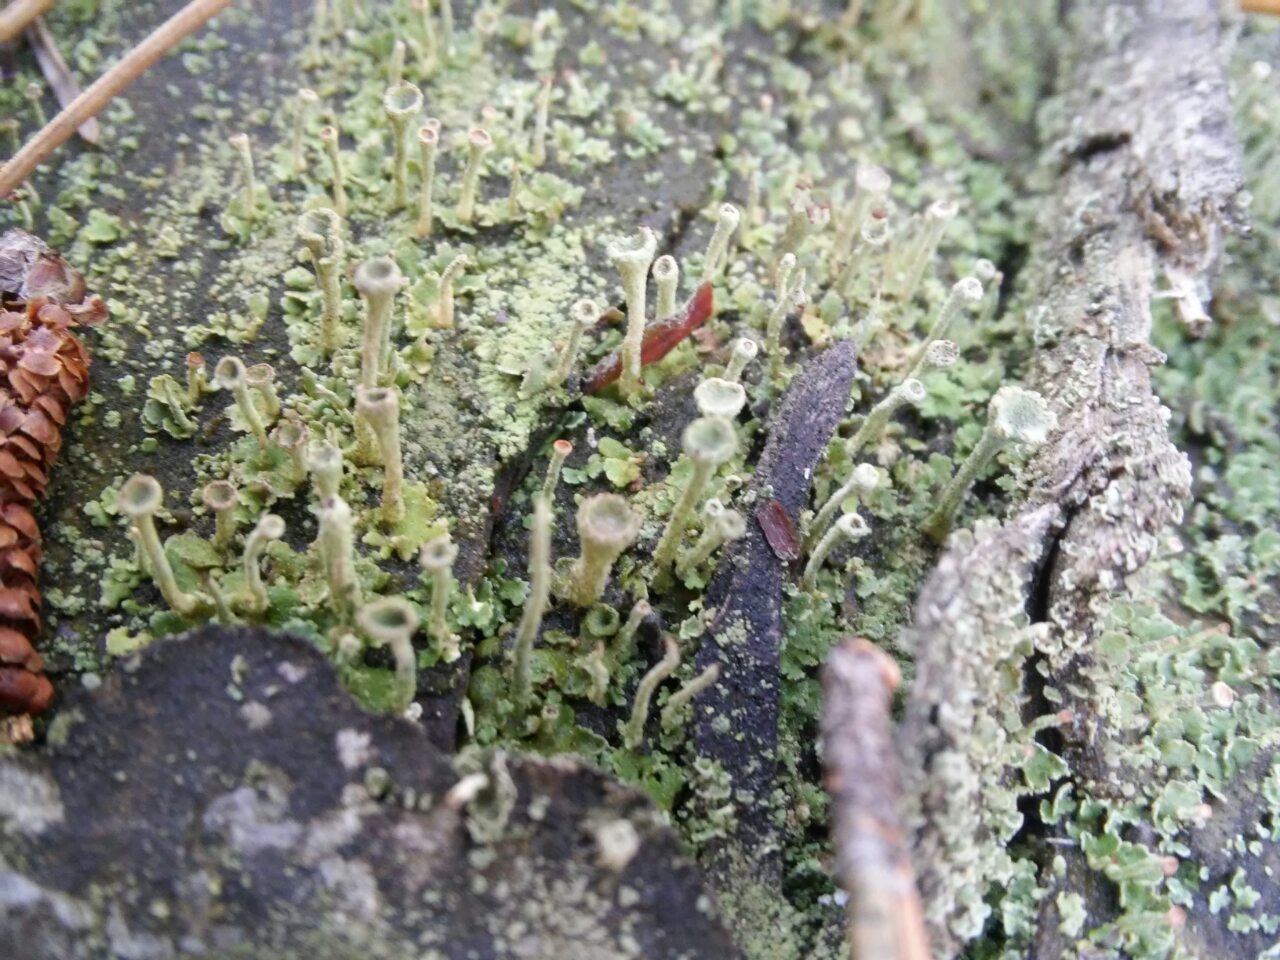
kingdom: Fungi
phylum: Ascomycota
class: Lecanoromycetes
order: Lecanorales
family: Cladoniaceae
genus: Cladonia
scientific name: Cladonia fimbriata
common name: Powdered trumpet lichen
